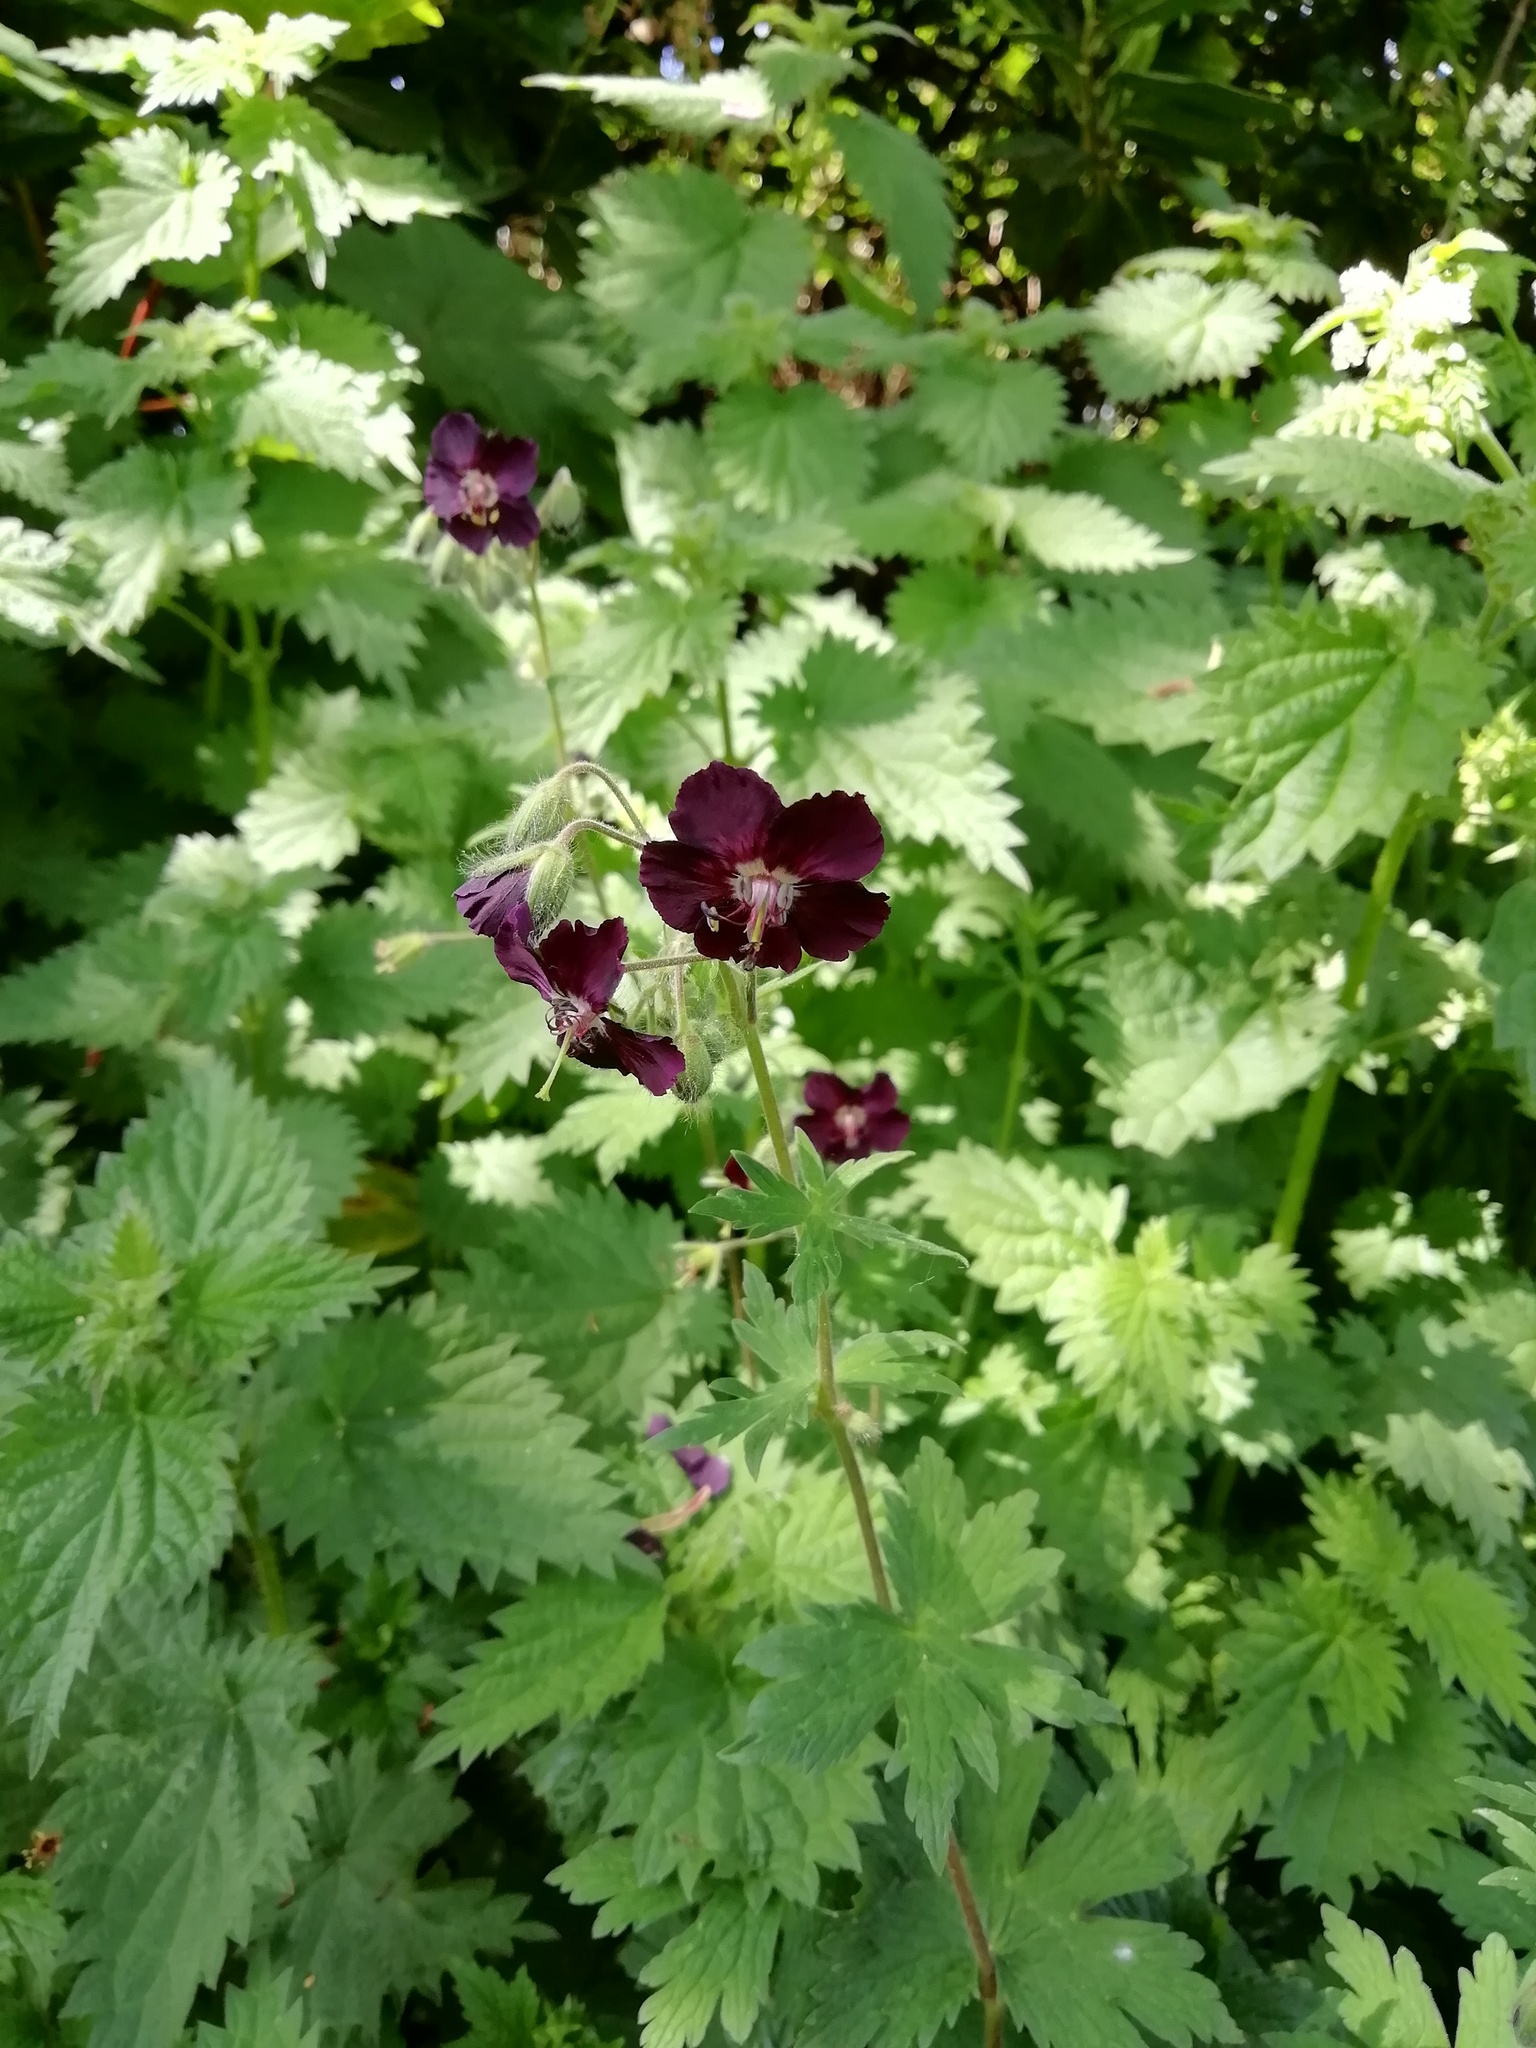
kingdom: Plantae
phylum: Tracheophyta
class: Magnoliopsida
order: Geraniales
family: Geraniaceae
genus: Geranium
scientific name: Geranium phaeum
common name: Dusky crane's-bill
